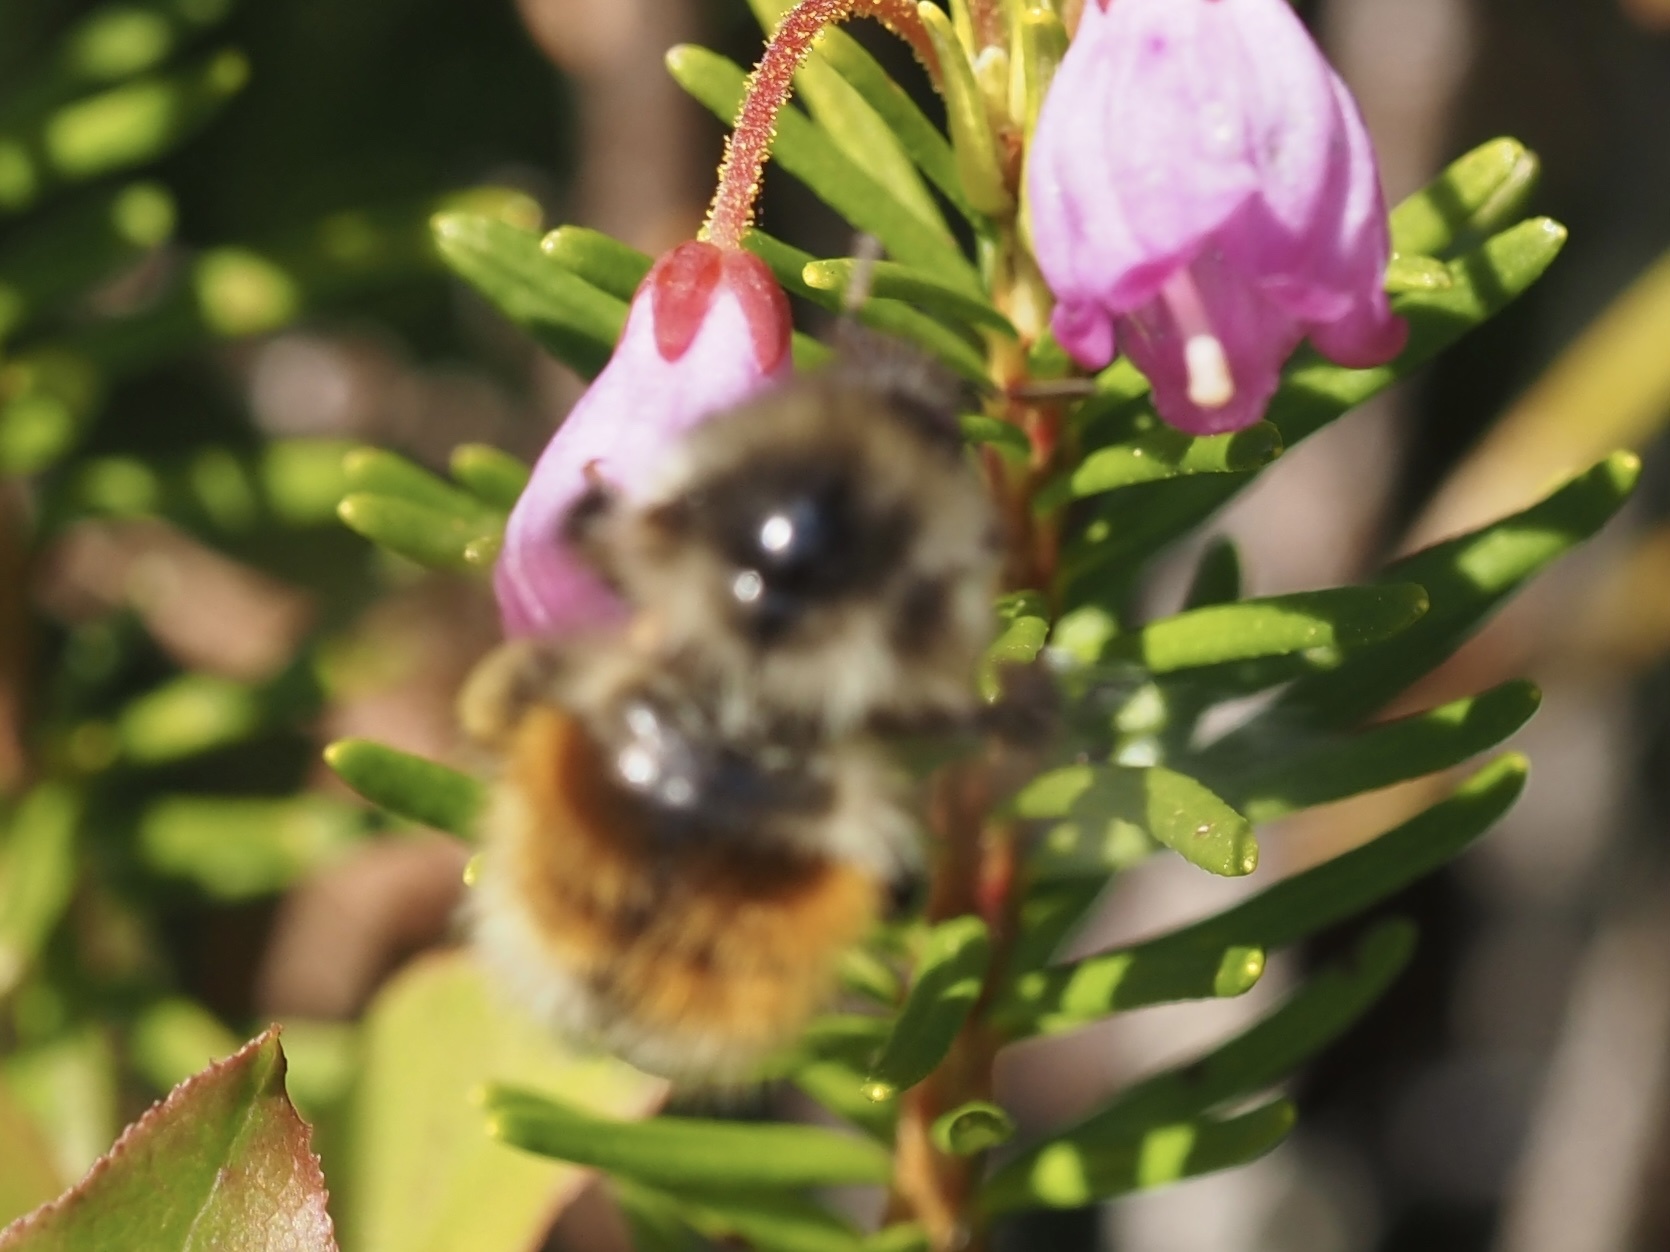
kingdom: Animalia
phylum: Arthropoda
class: Insecta
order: Hymenoptera
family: Apidae
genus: Bombus
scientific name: Bombus melanopygus
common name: Black tail bumble bee
